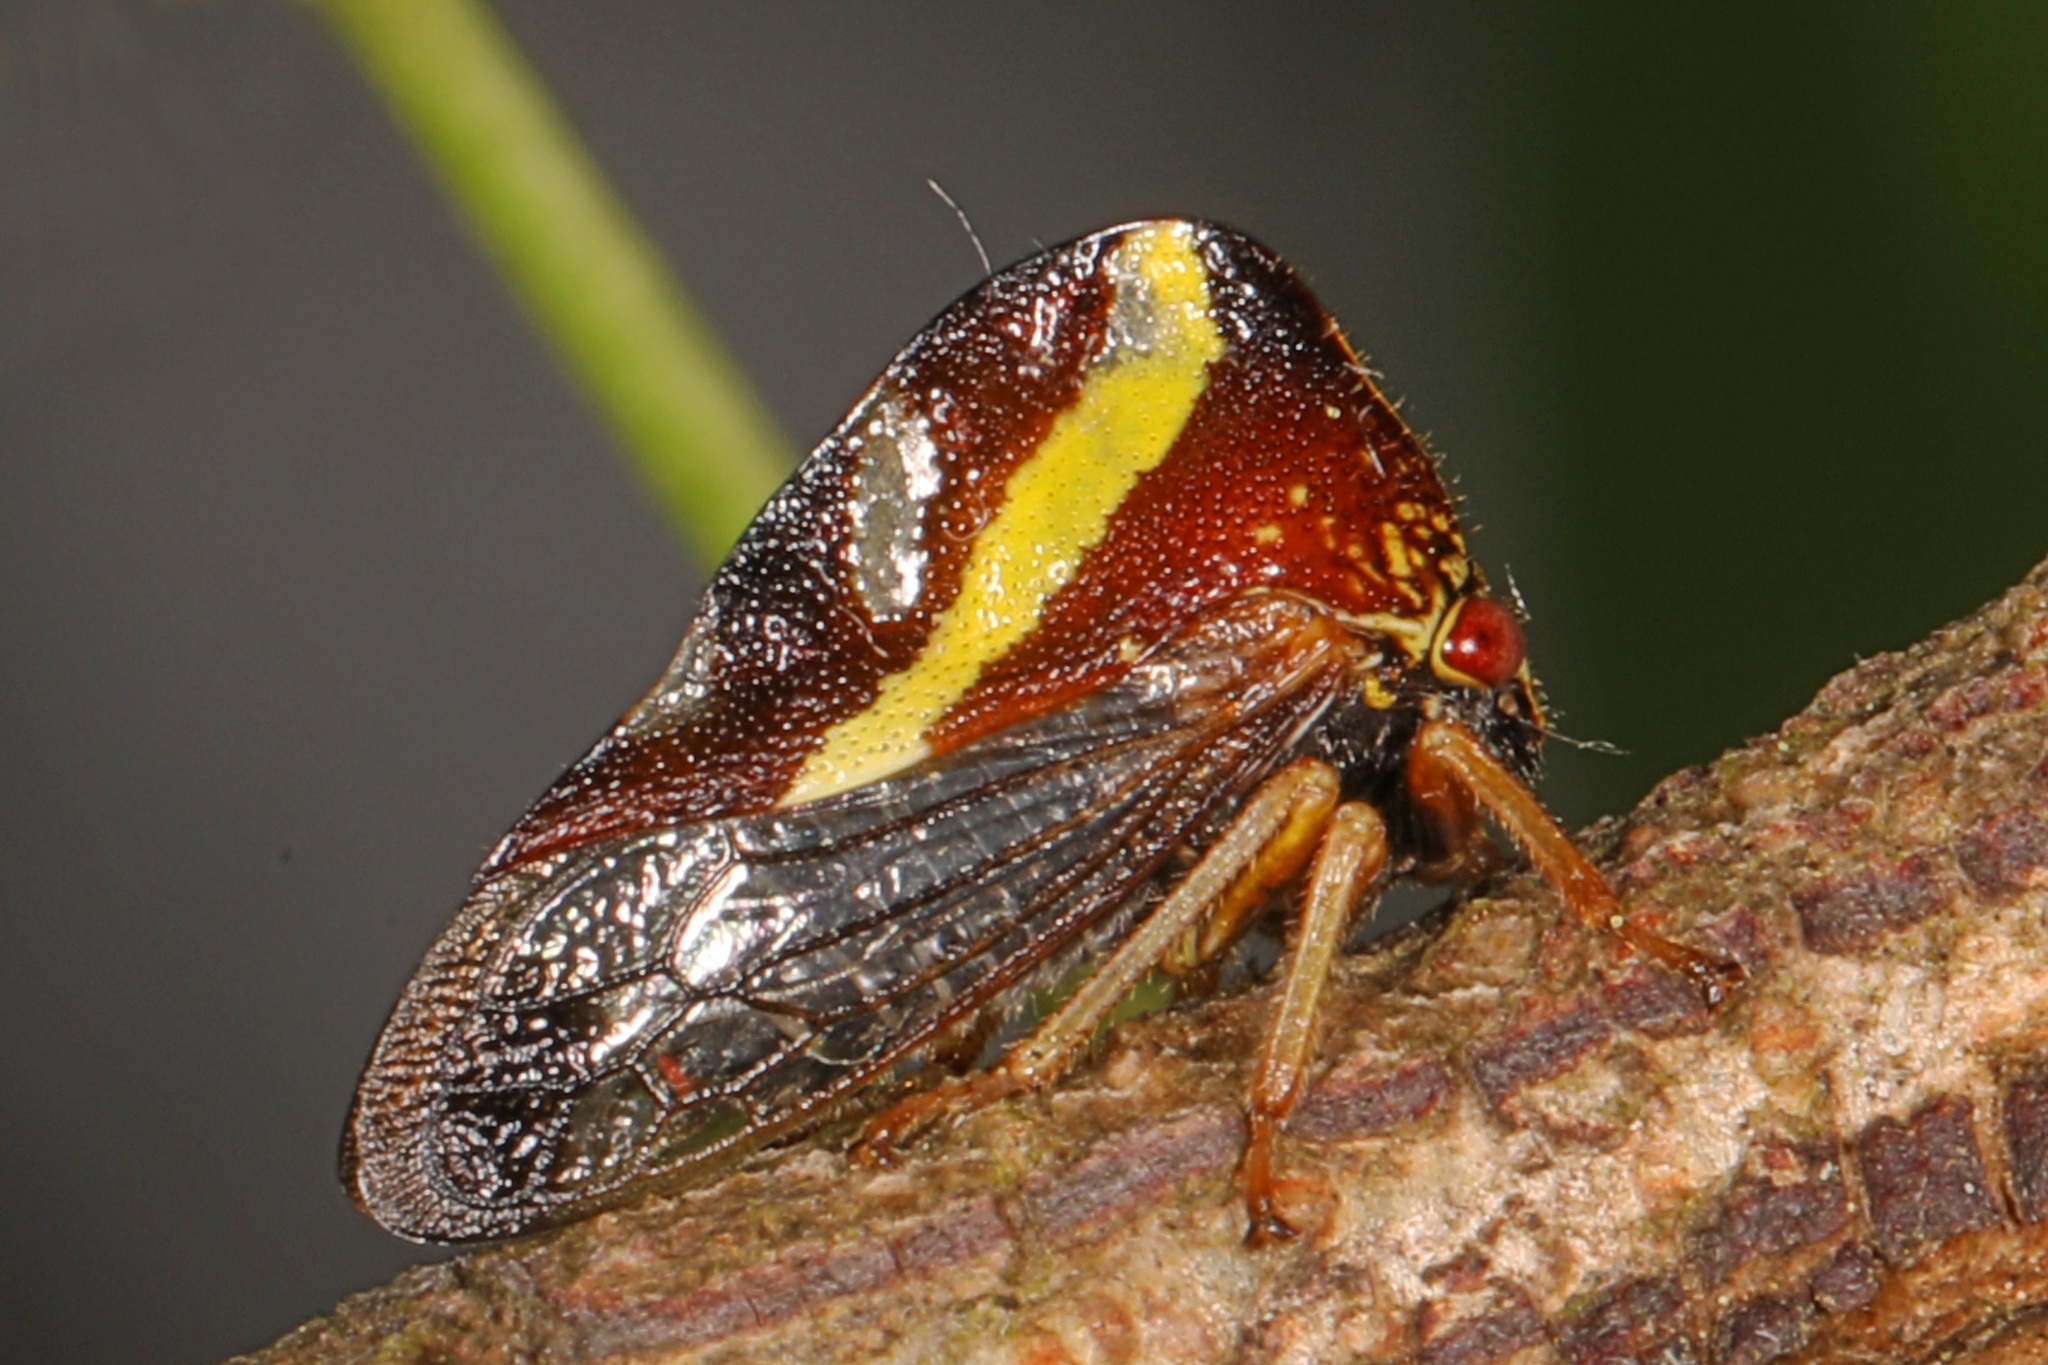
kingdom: Animalia
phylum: Arthropoda
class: Insecta
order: Hemiptera
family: Membracidae
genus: Smilia
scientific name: Smilia camelus
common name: Camel treehopper
